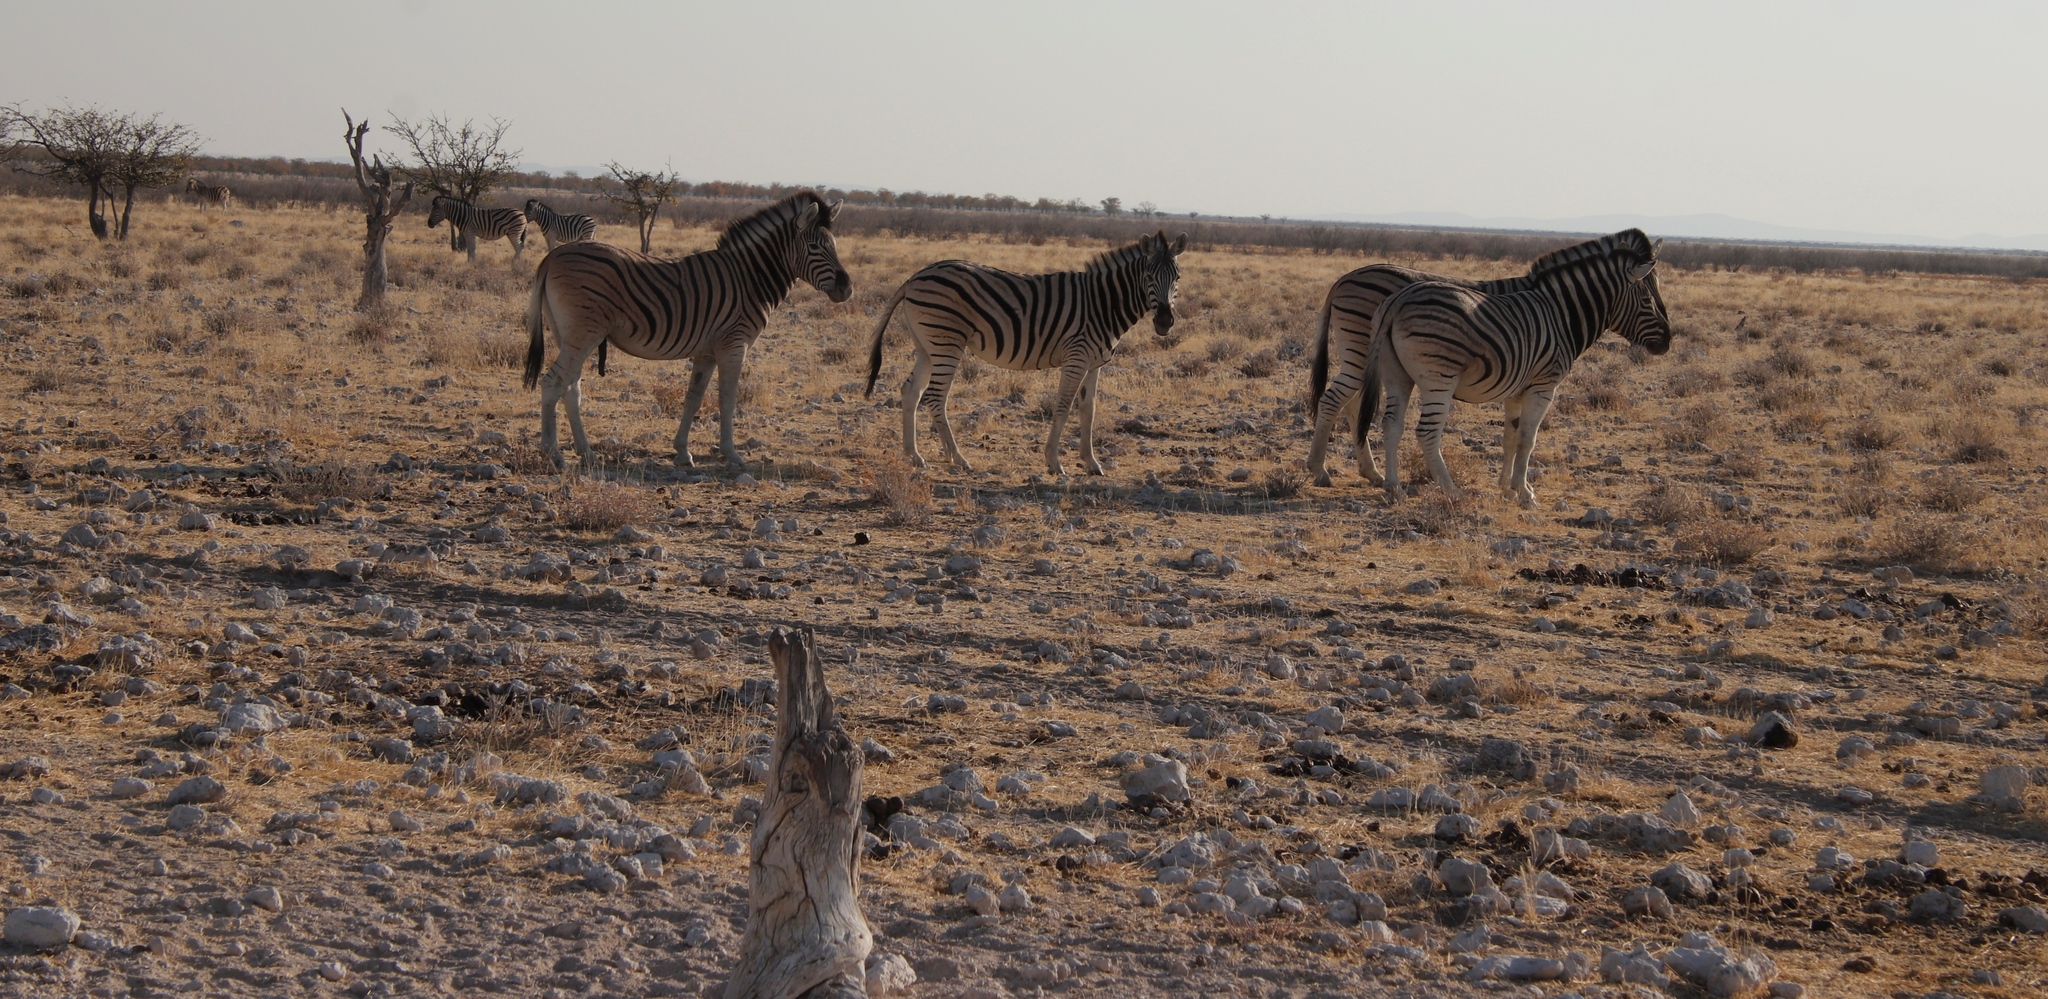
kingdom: Animalia
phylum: Chordata
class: Mammalia
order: Perissodactyla
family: Equidae
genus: Equus
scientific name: Equus quagga
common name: Plains zebra
